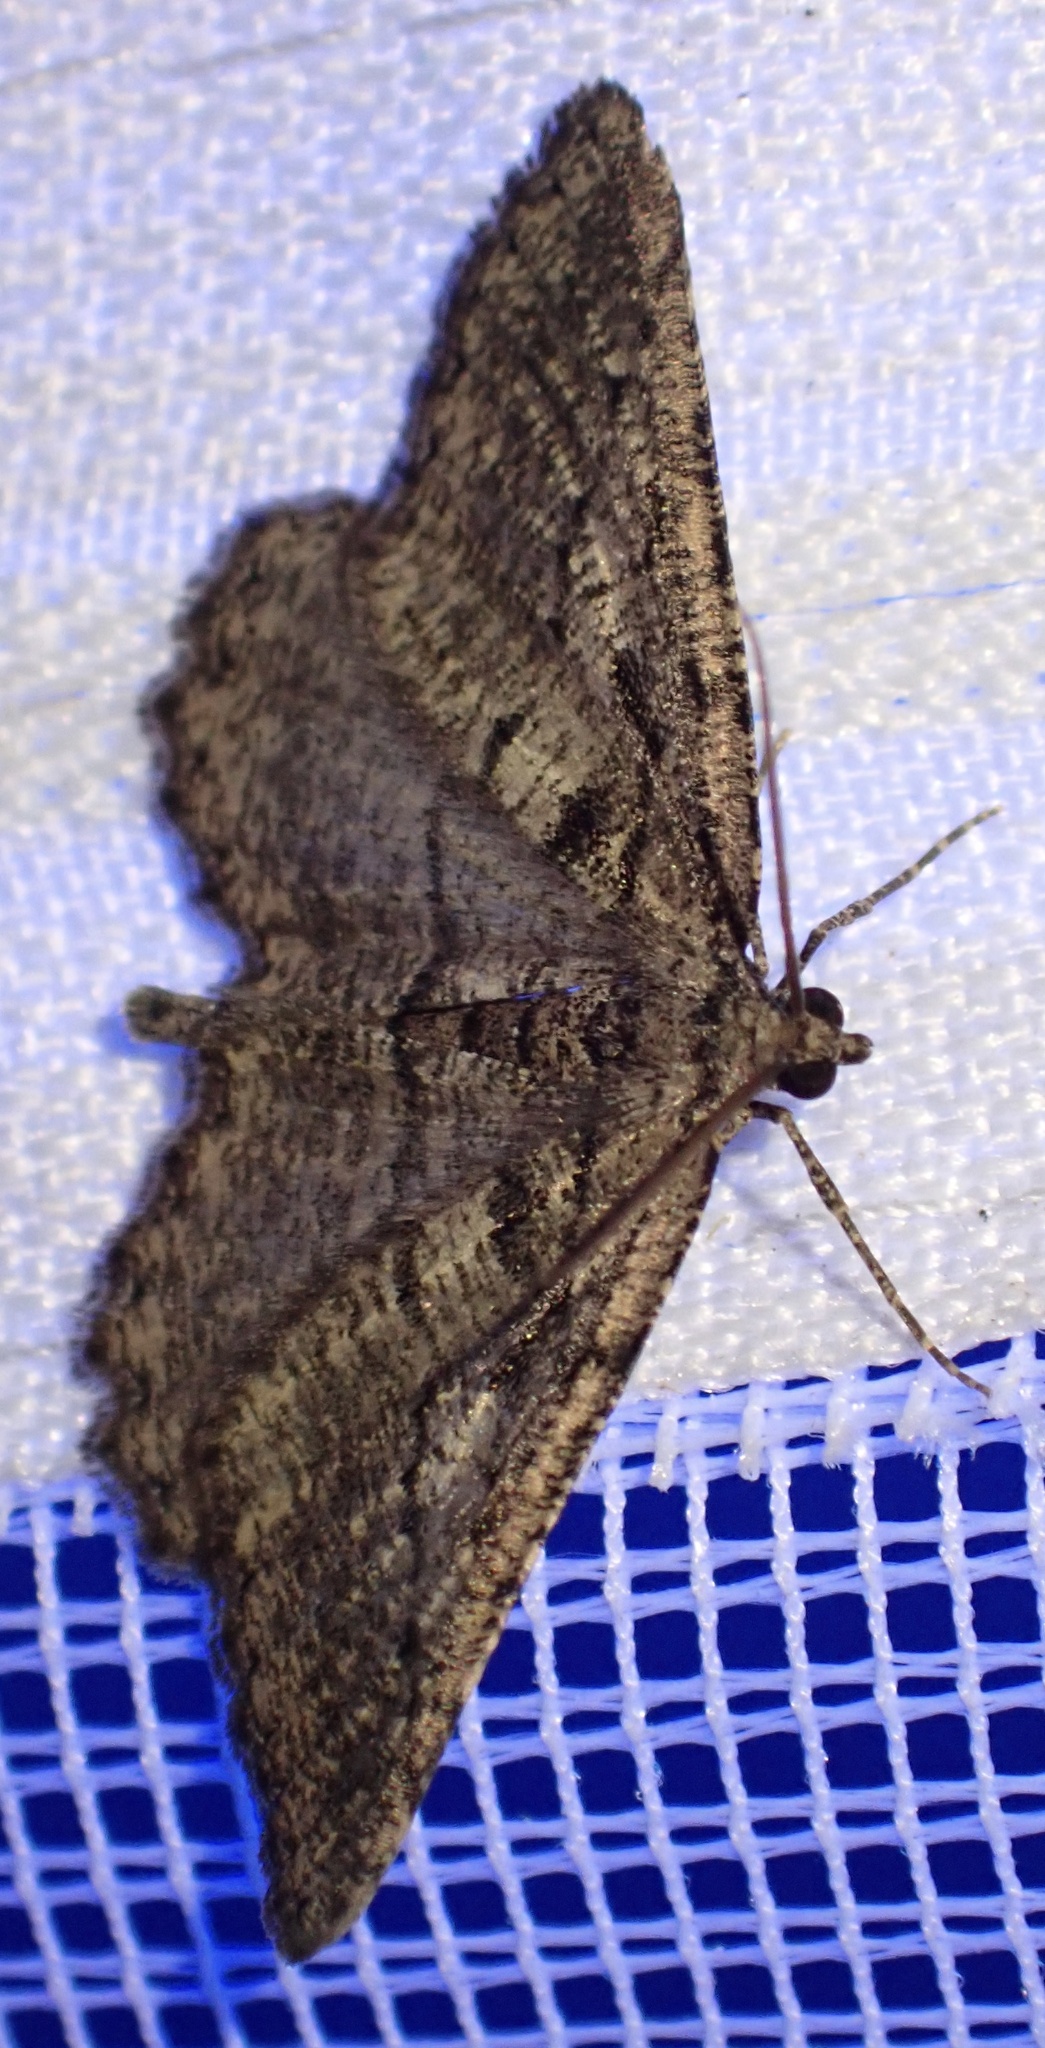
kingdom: Animalia
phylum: Arthropoda
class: Insecta
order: Lepidoptera
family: Geometridae
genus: Rhoptria
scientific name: Rhoptria asperaria
